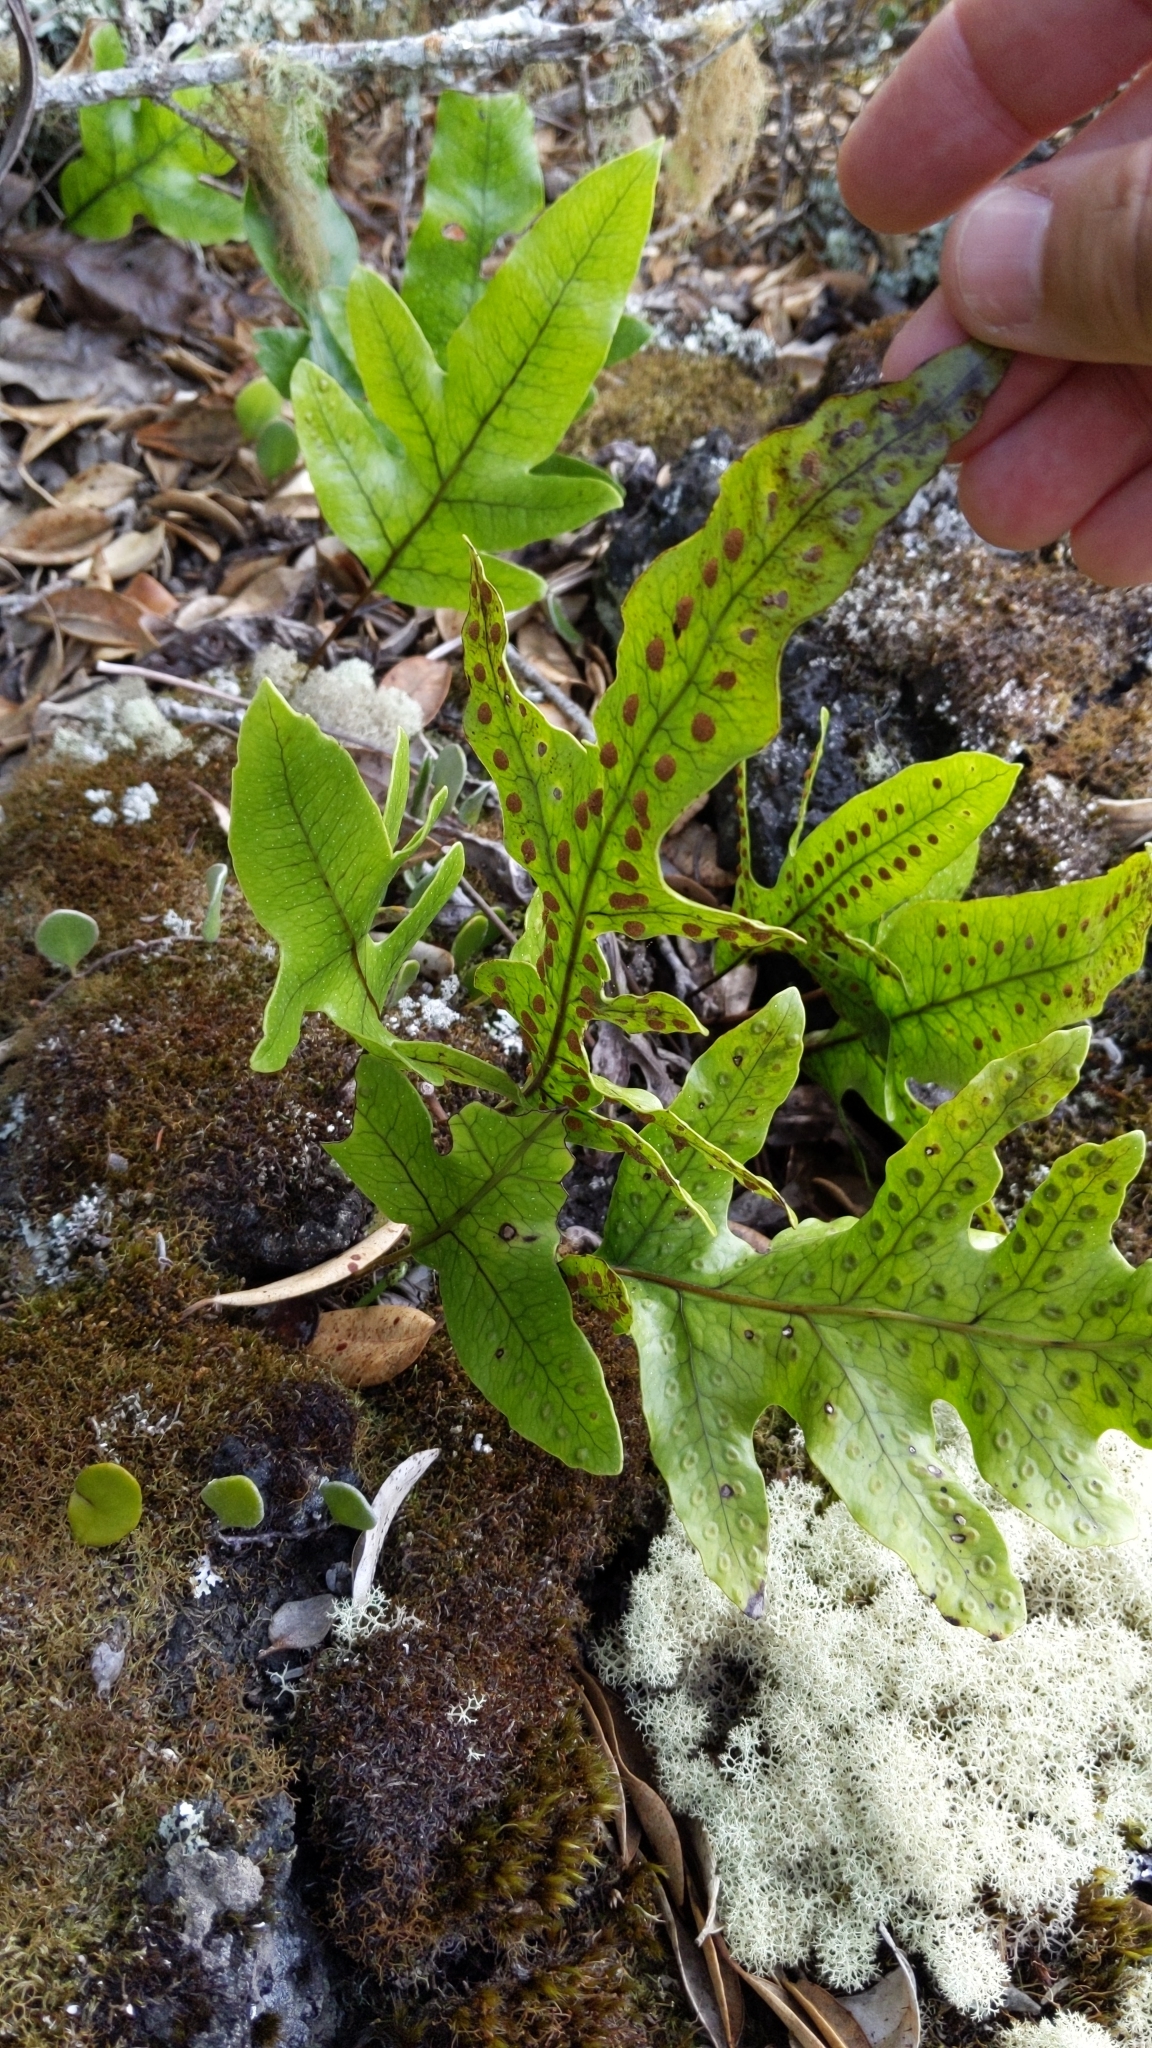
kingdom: Plantae
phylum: Tracheophyta
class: Polypodiopsida
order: Polypodiales
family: Polypodiaceae
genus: Lecanopteris
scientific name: Lecanopteris pustulata
